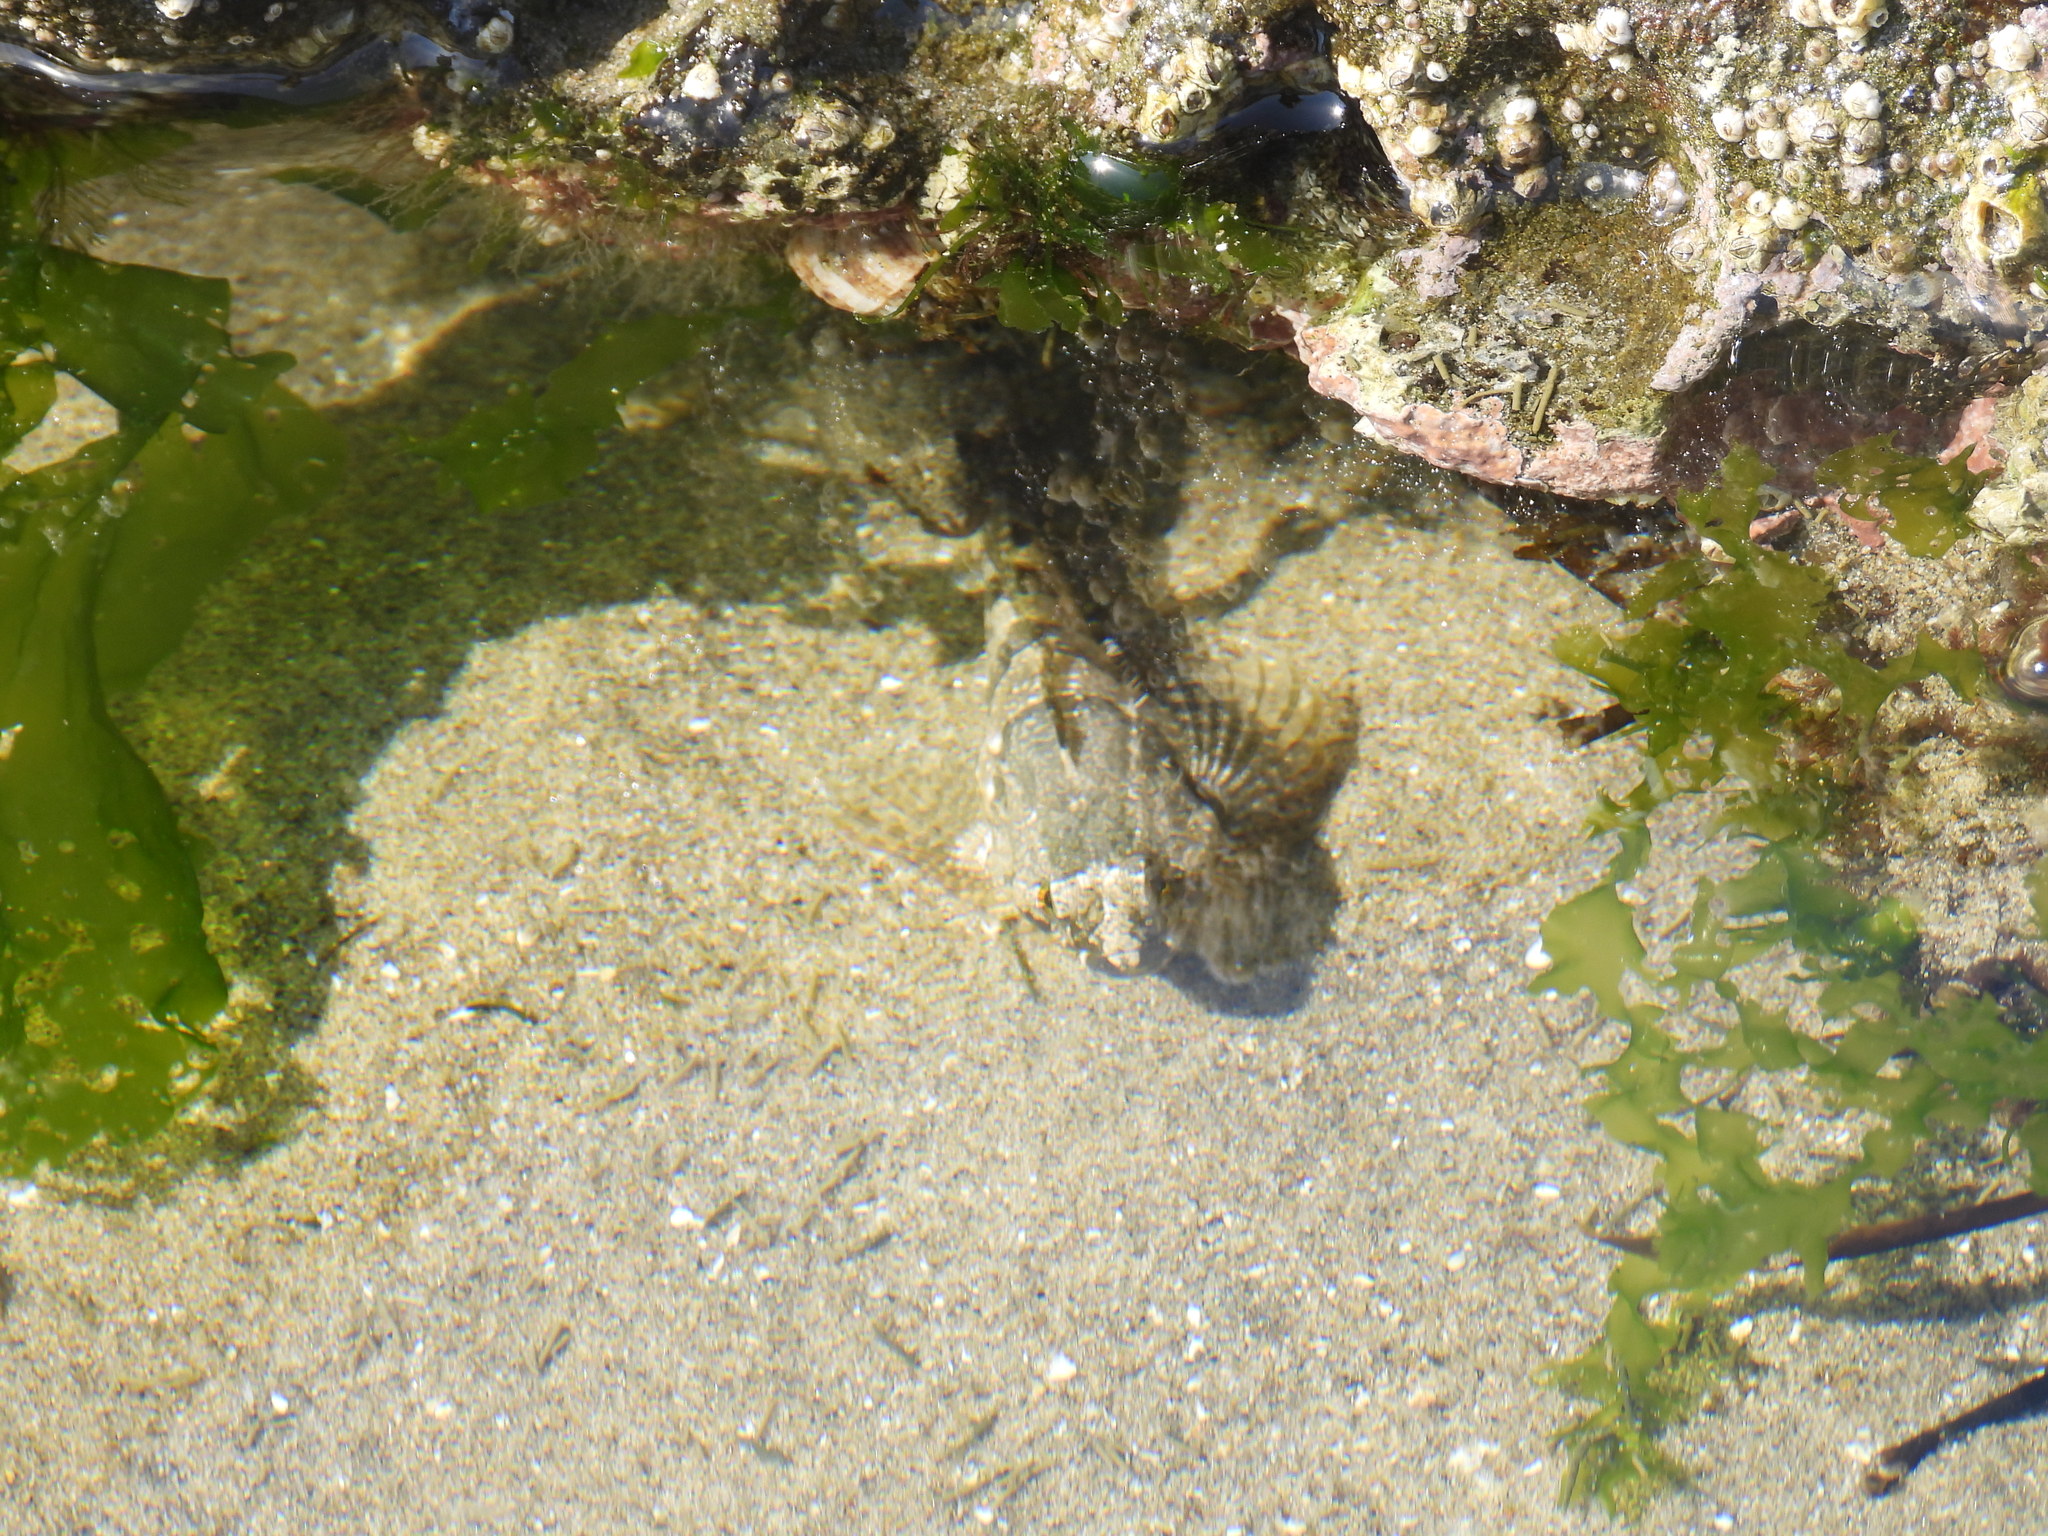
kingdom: Animalia
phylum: Chordata
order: Scorpaeniformes
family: Cottidae
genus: Oligocottus
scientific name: Oligocottus maculosus
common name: Tidepool sculpin
